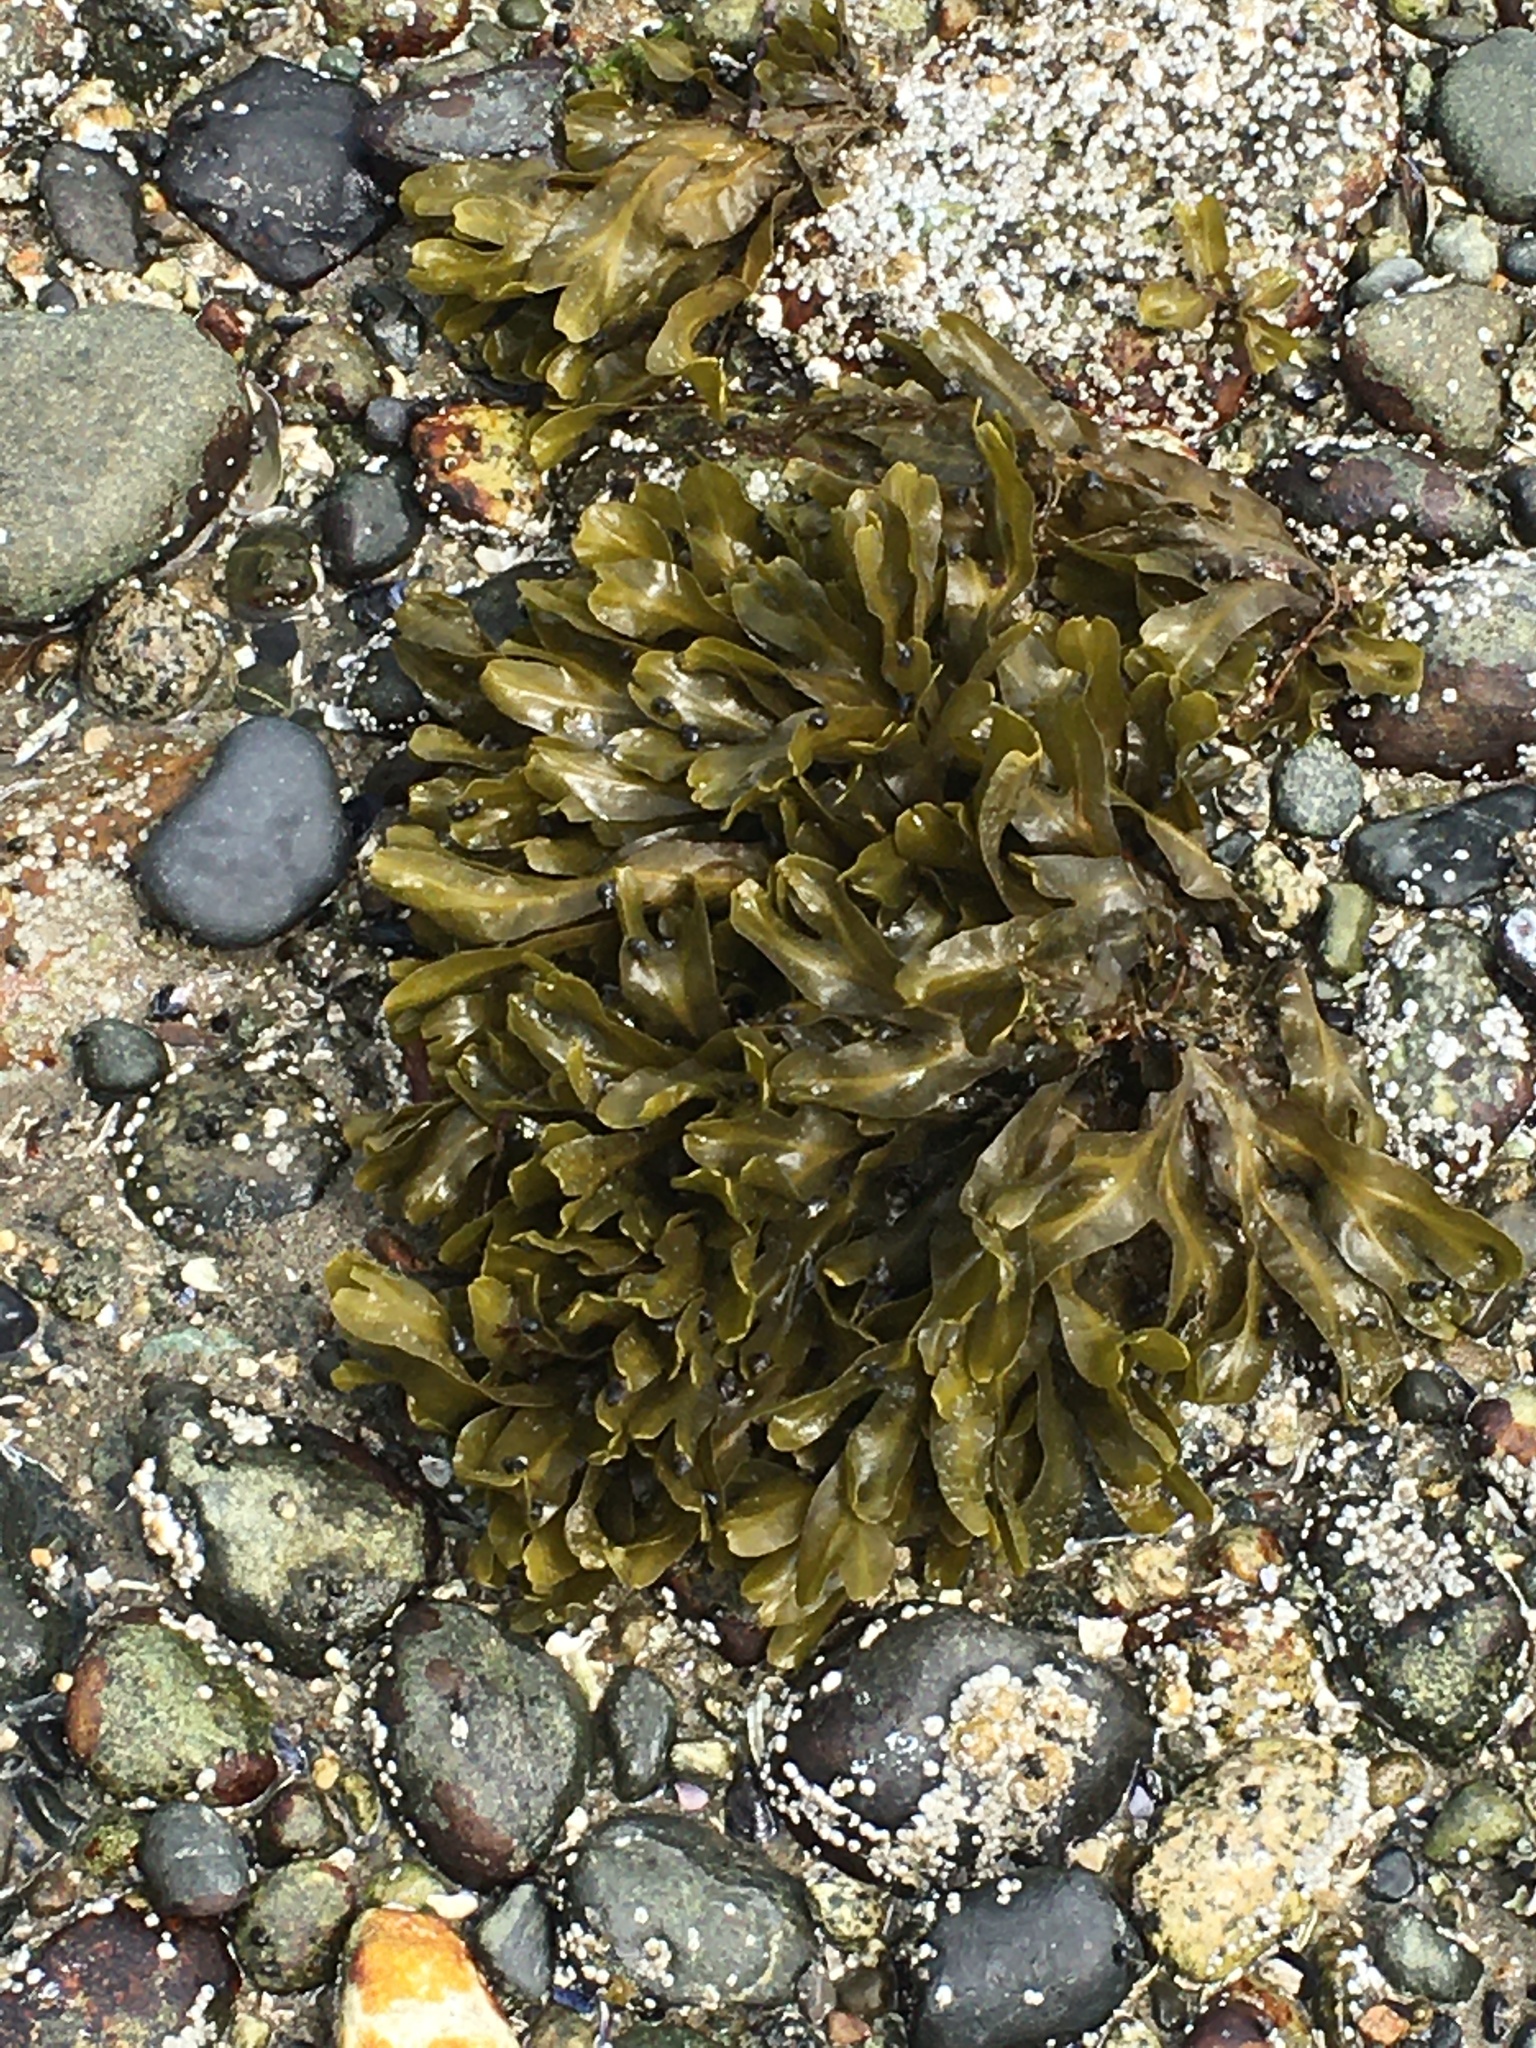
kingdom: Chromista
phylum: Ochrophyta
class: Phaeophyceae
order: Fucales
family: Fucaceae
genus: Fucus
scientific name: Fucus distichus
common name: Rockweed
